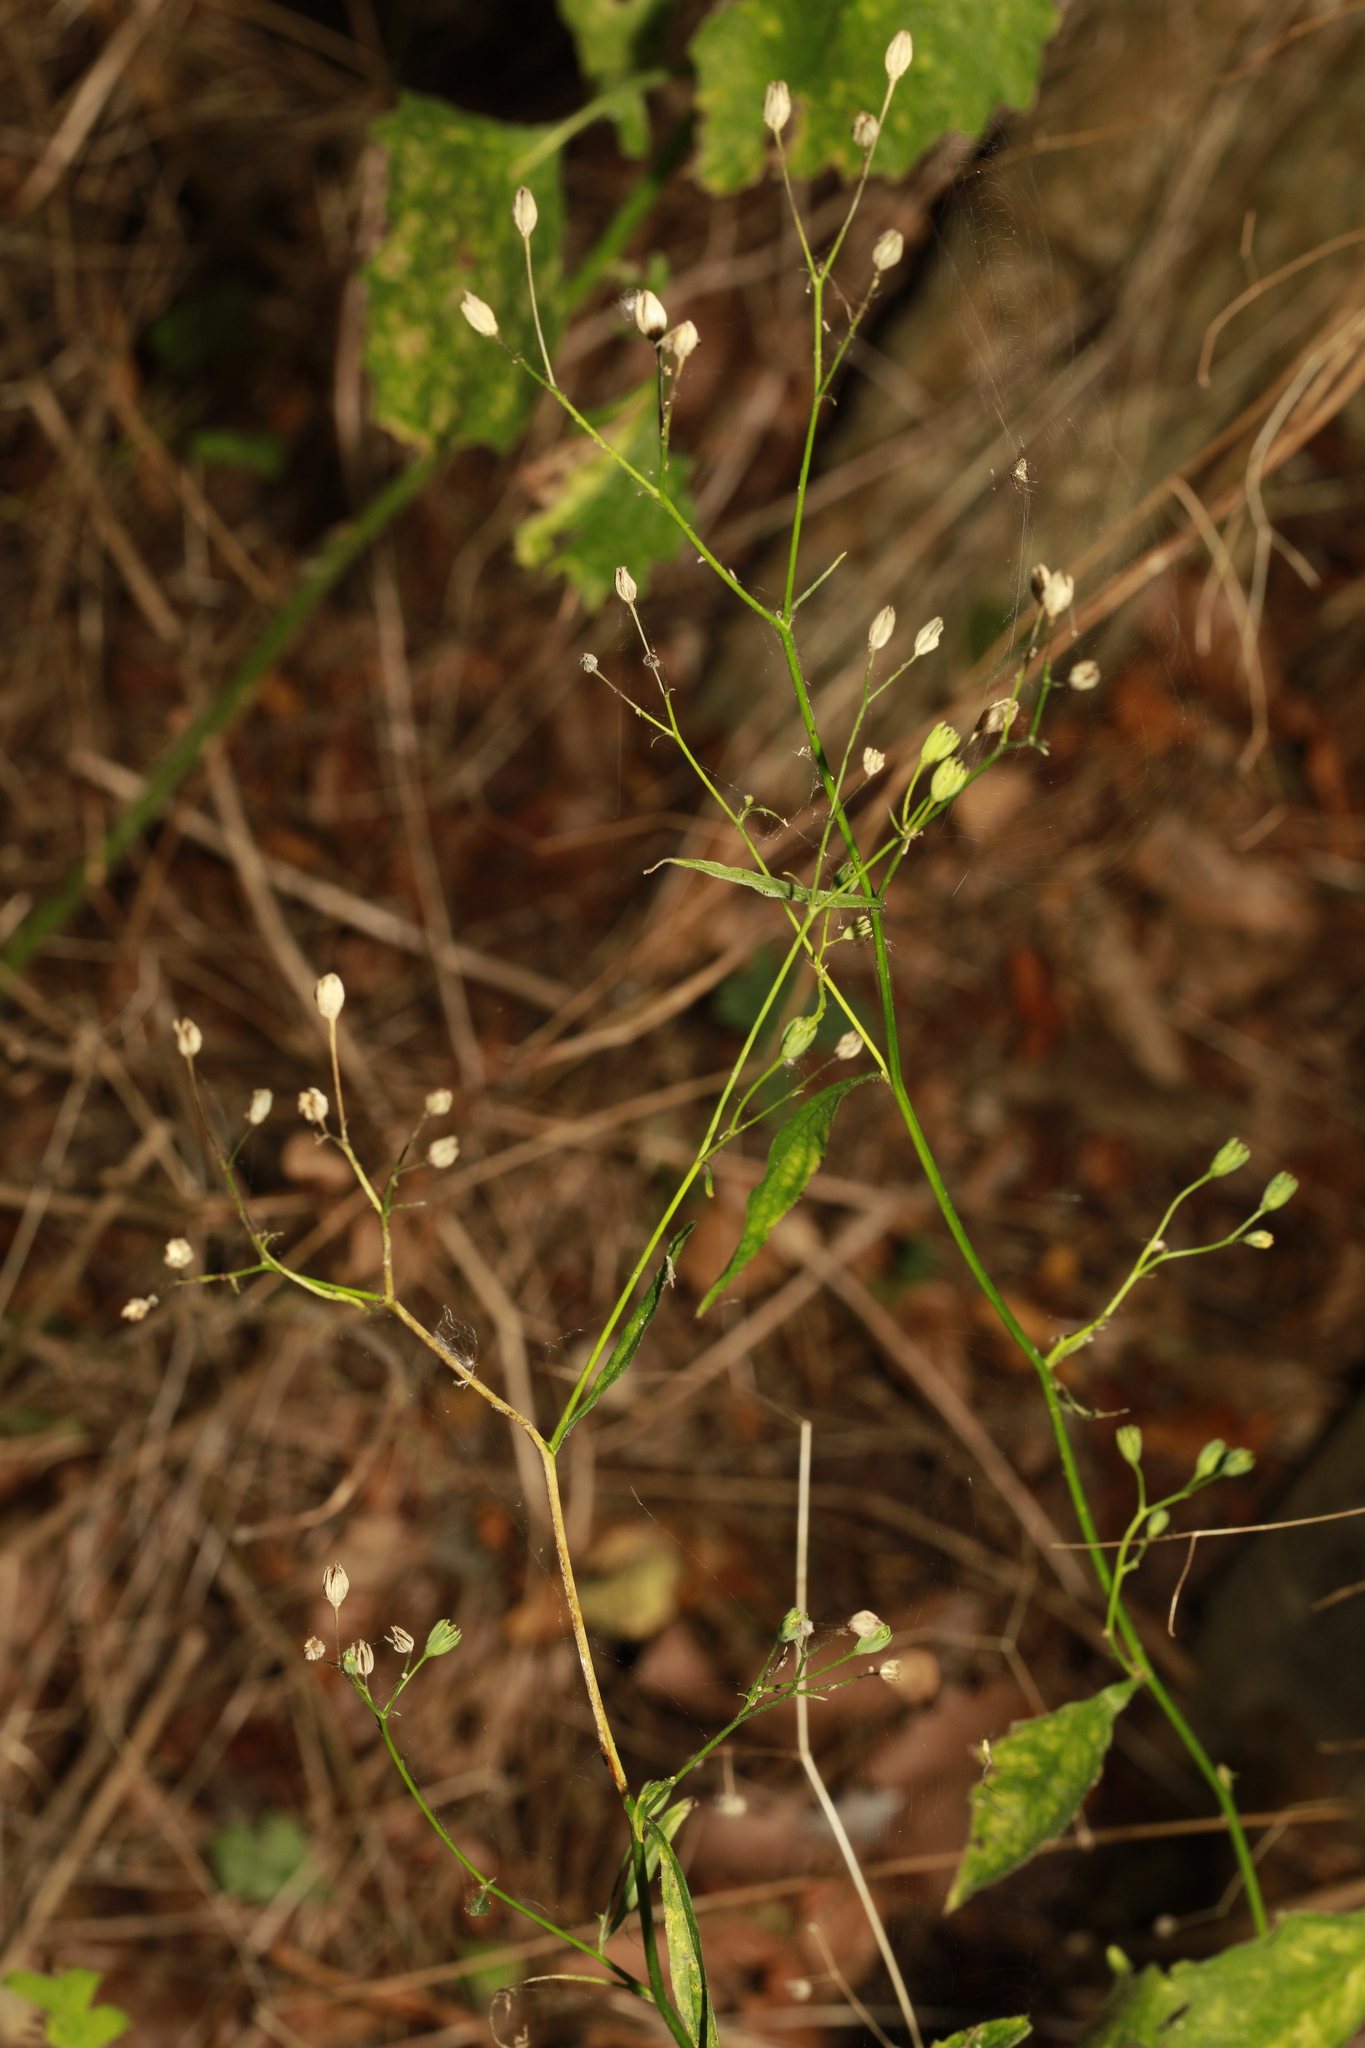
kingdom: Plantae
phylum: Tracheophyta
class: Magnoliopsida
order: Asterales
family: Asteraceae
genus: Lapsana
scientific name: Lapsana communis
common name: Nipplewort
